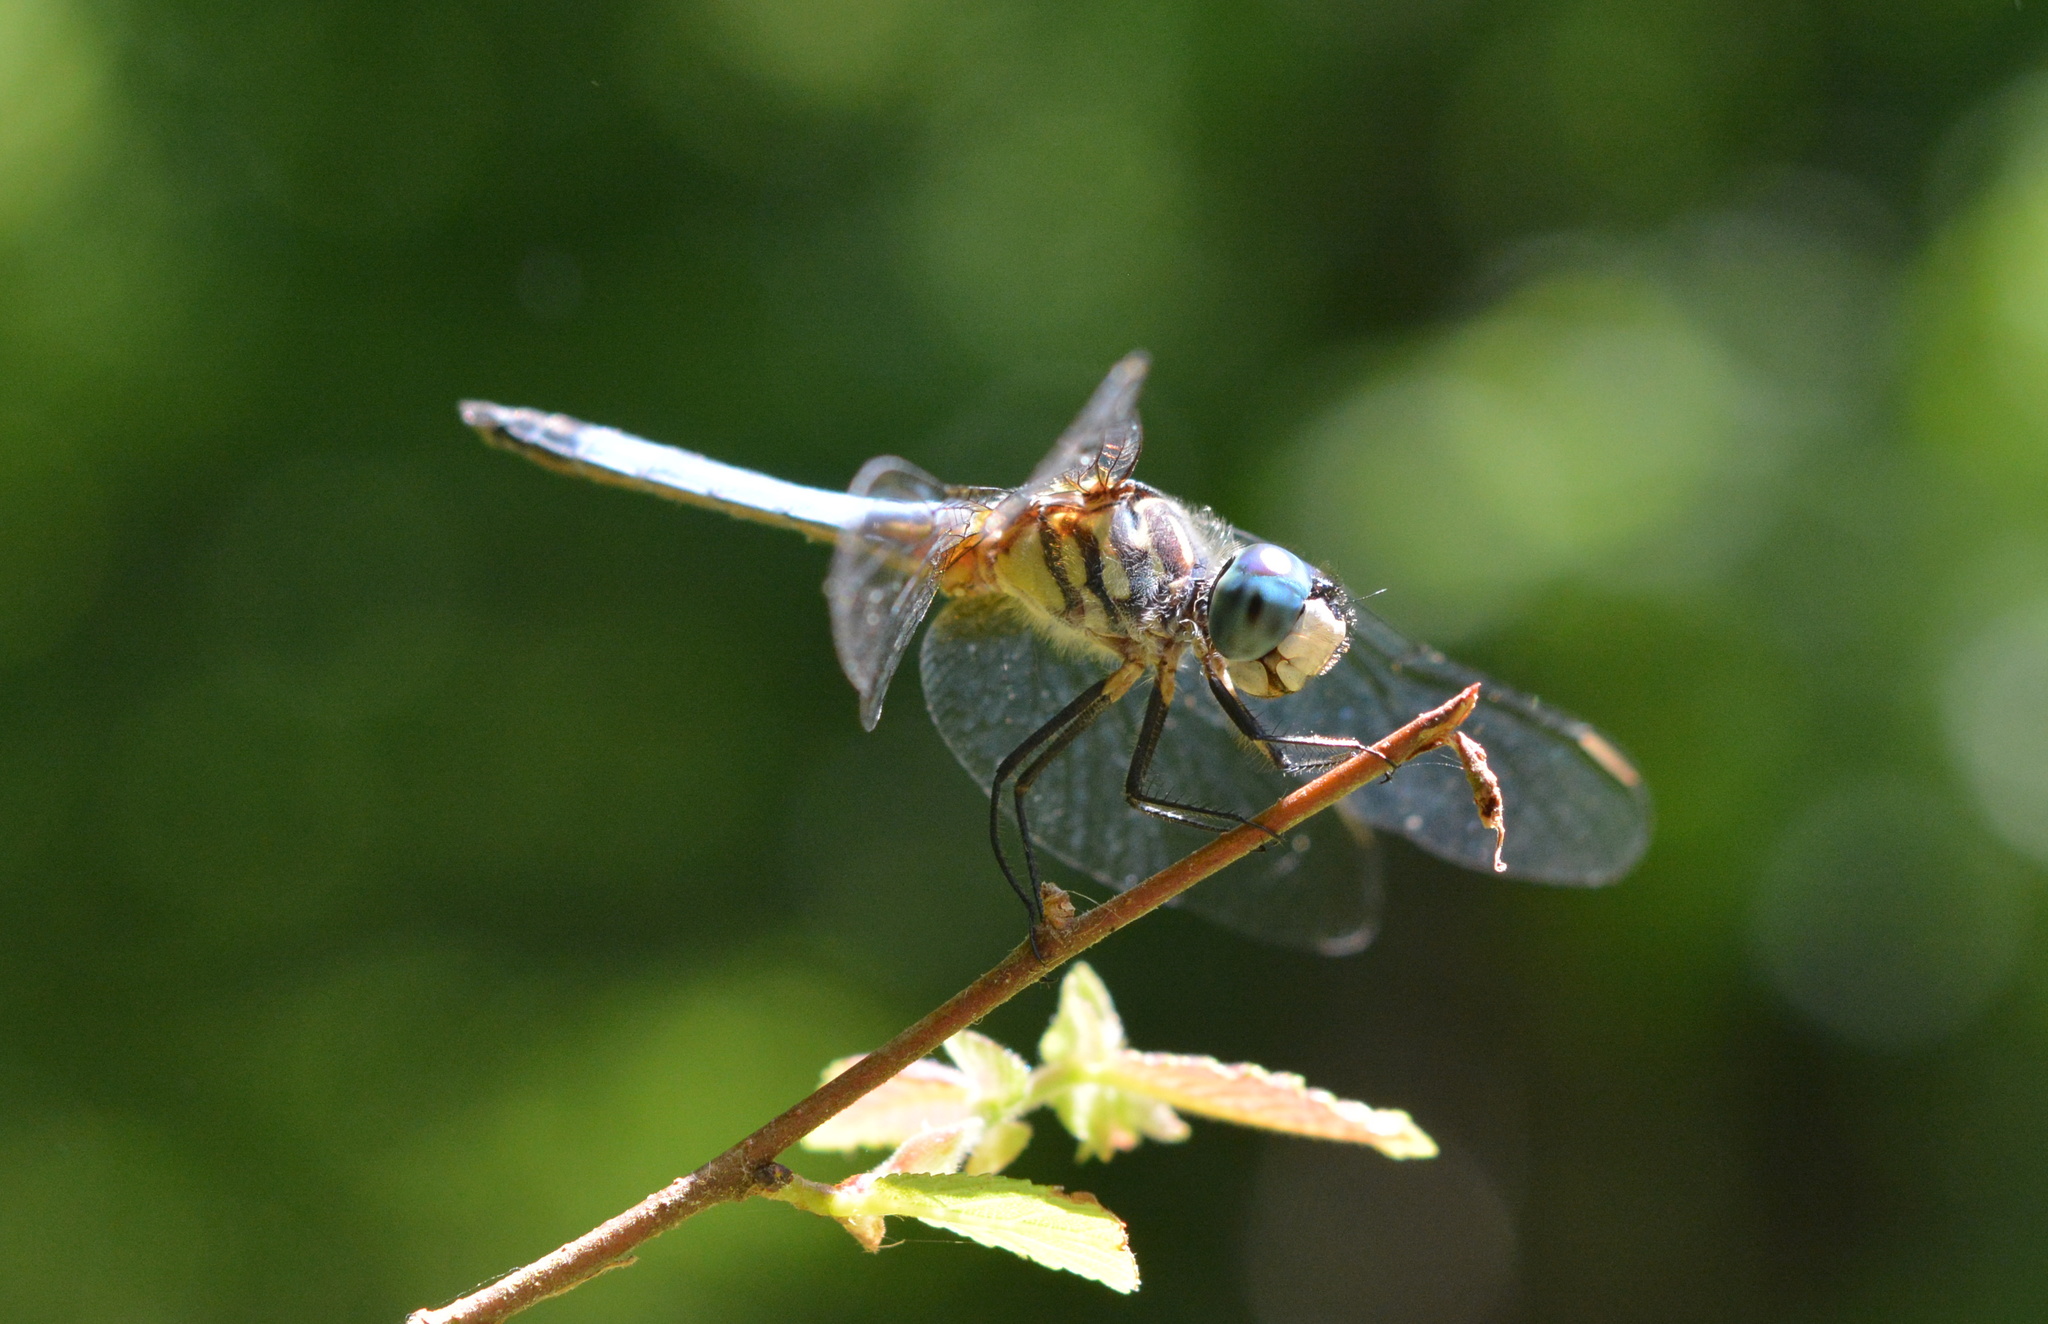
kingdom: Animalia
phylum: Arthropoda
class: Insecta
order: Odonata
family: Libellulidae
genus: Pachydiplax
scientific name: Pachydiplax longipennis
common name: Blue dasher
